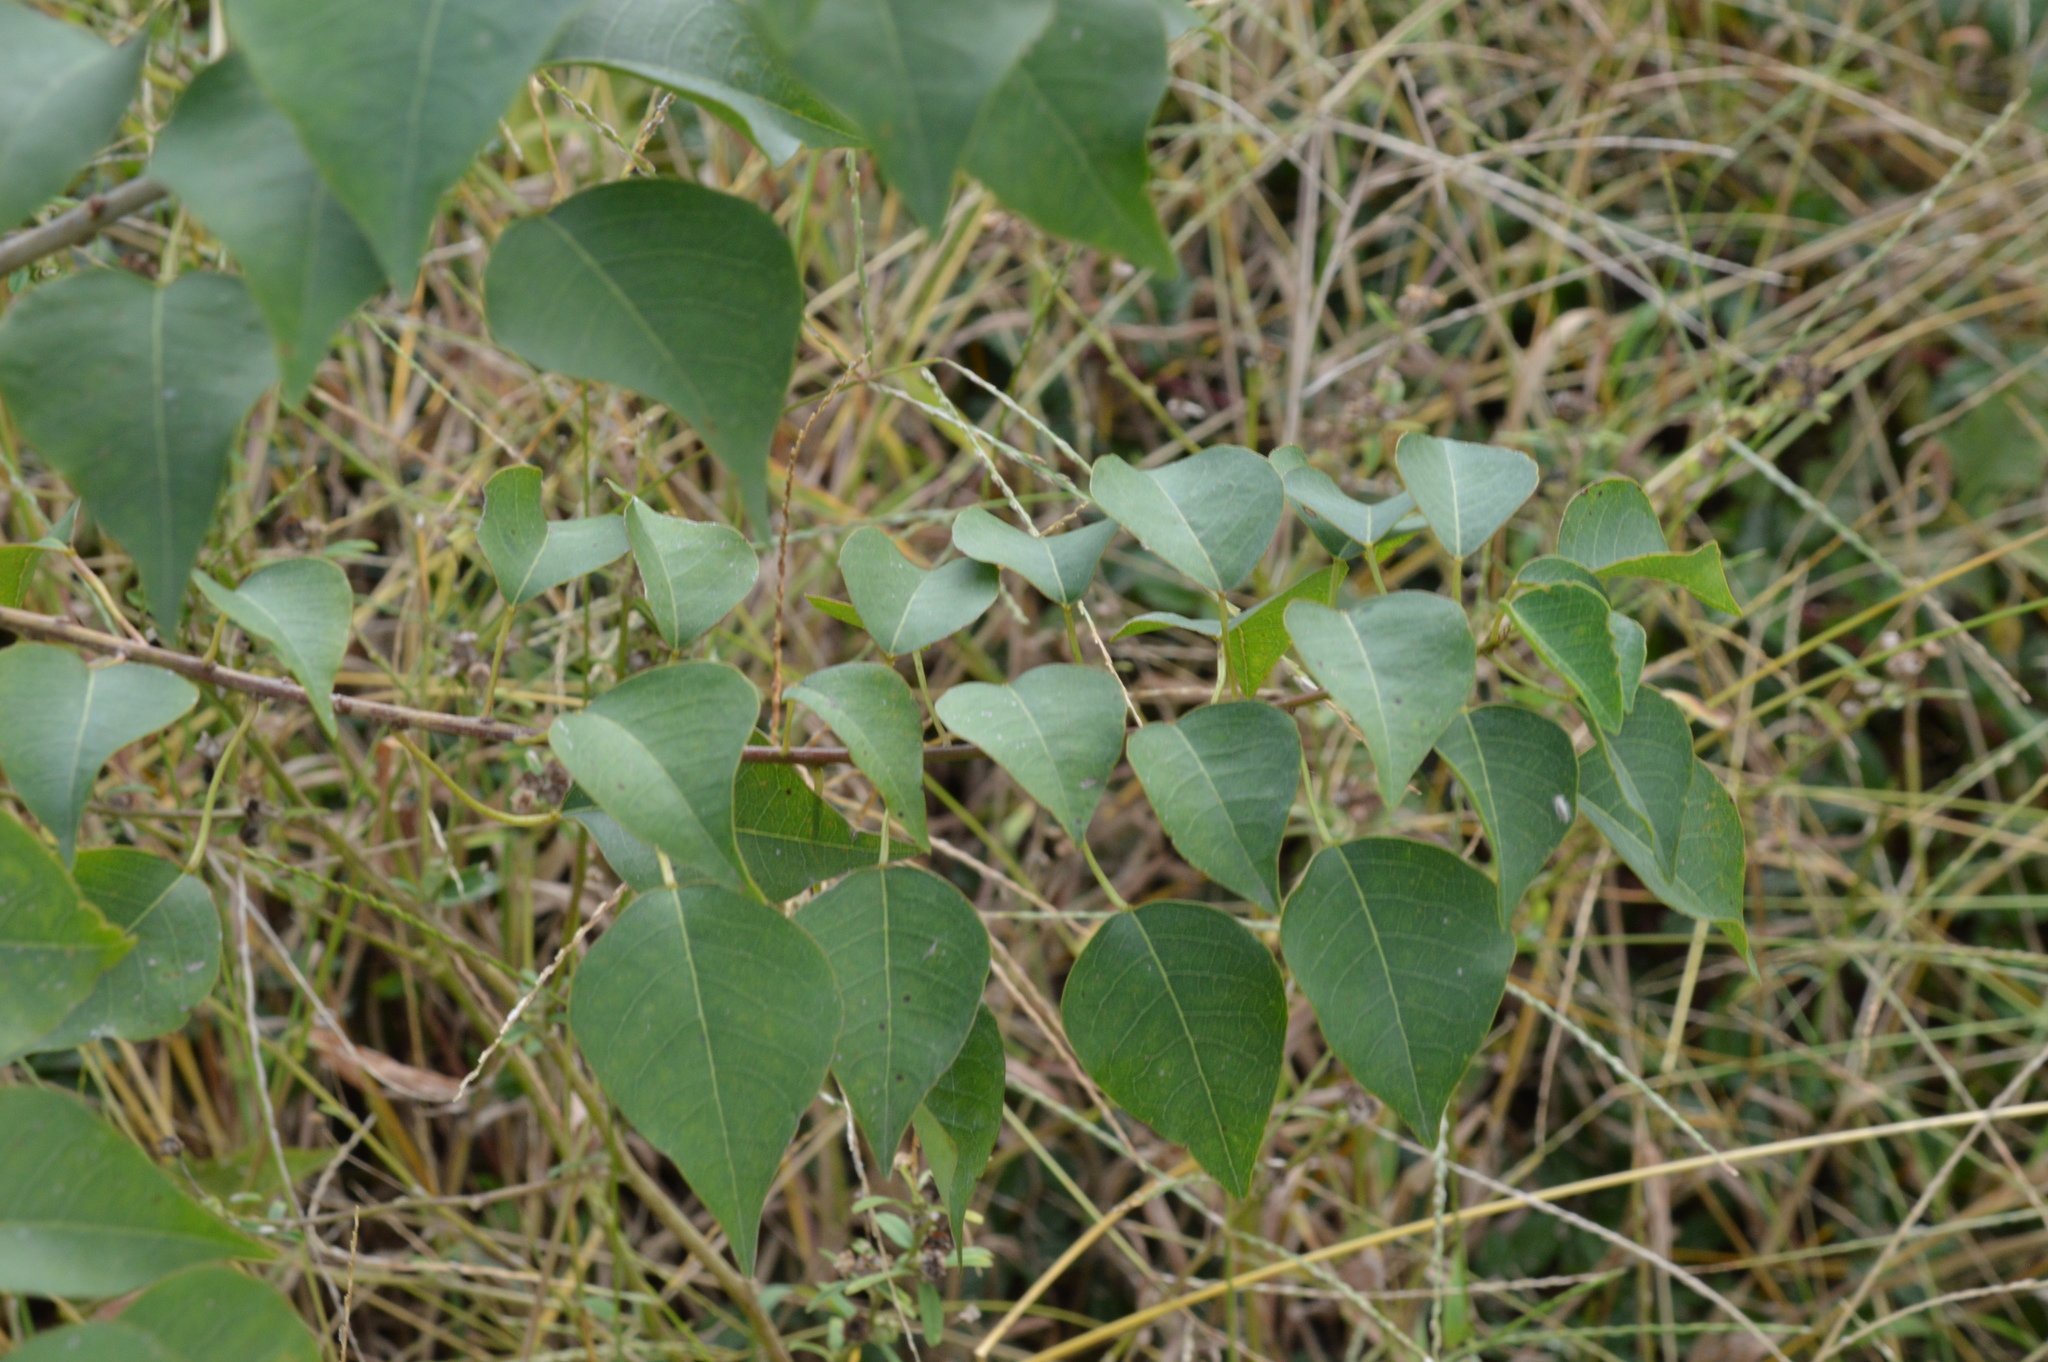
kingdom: Plantae
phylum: Tracheophyta
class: Magnoliopsida
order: Malpighiales
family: Euphorbiaceae
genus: Triadica
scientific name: Triadica sebifera
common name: Chinese tallow
